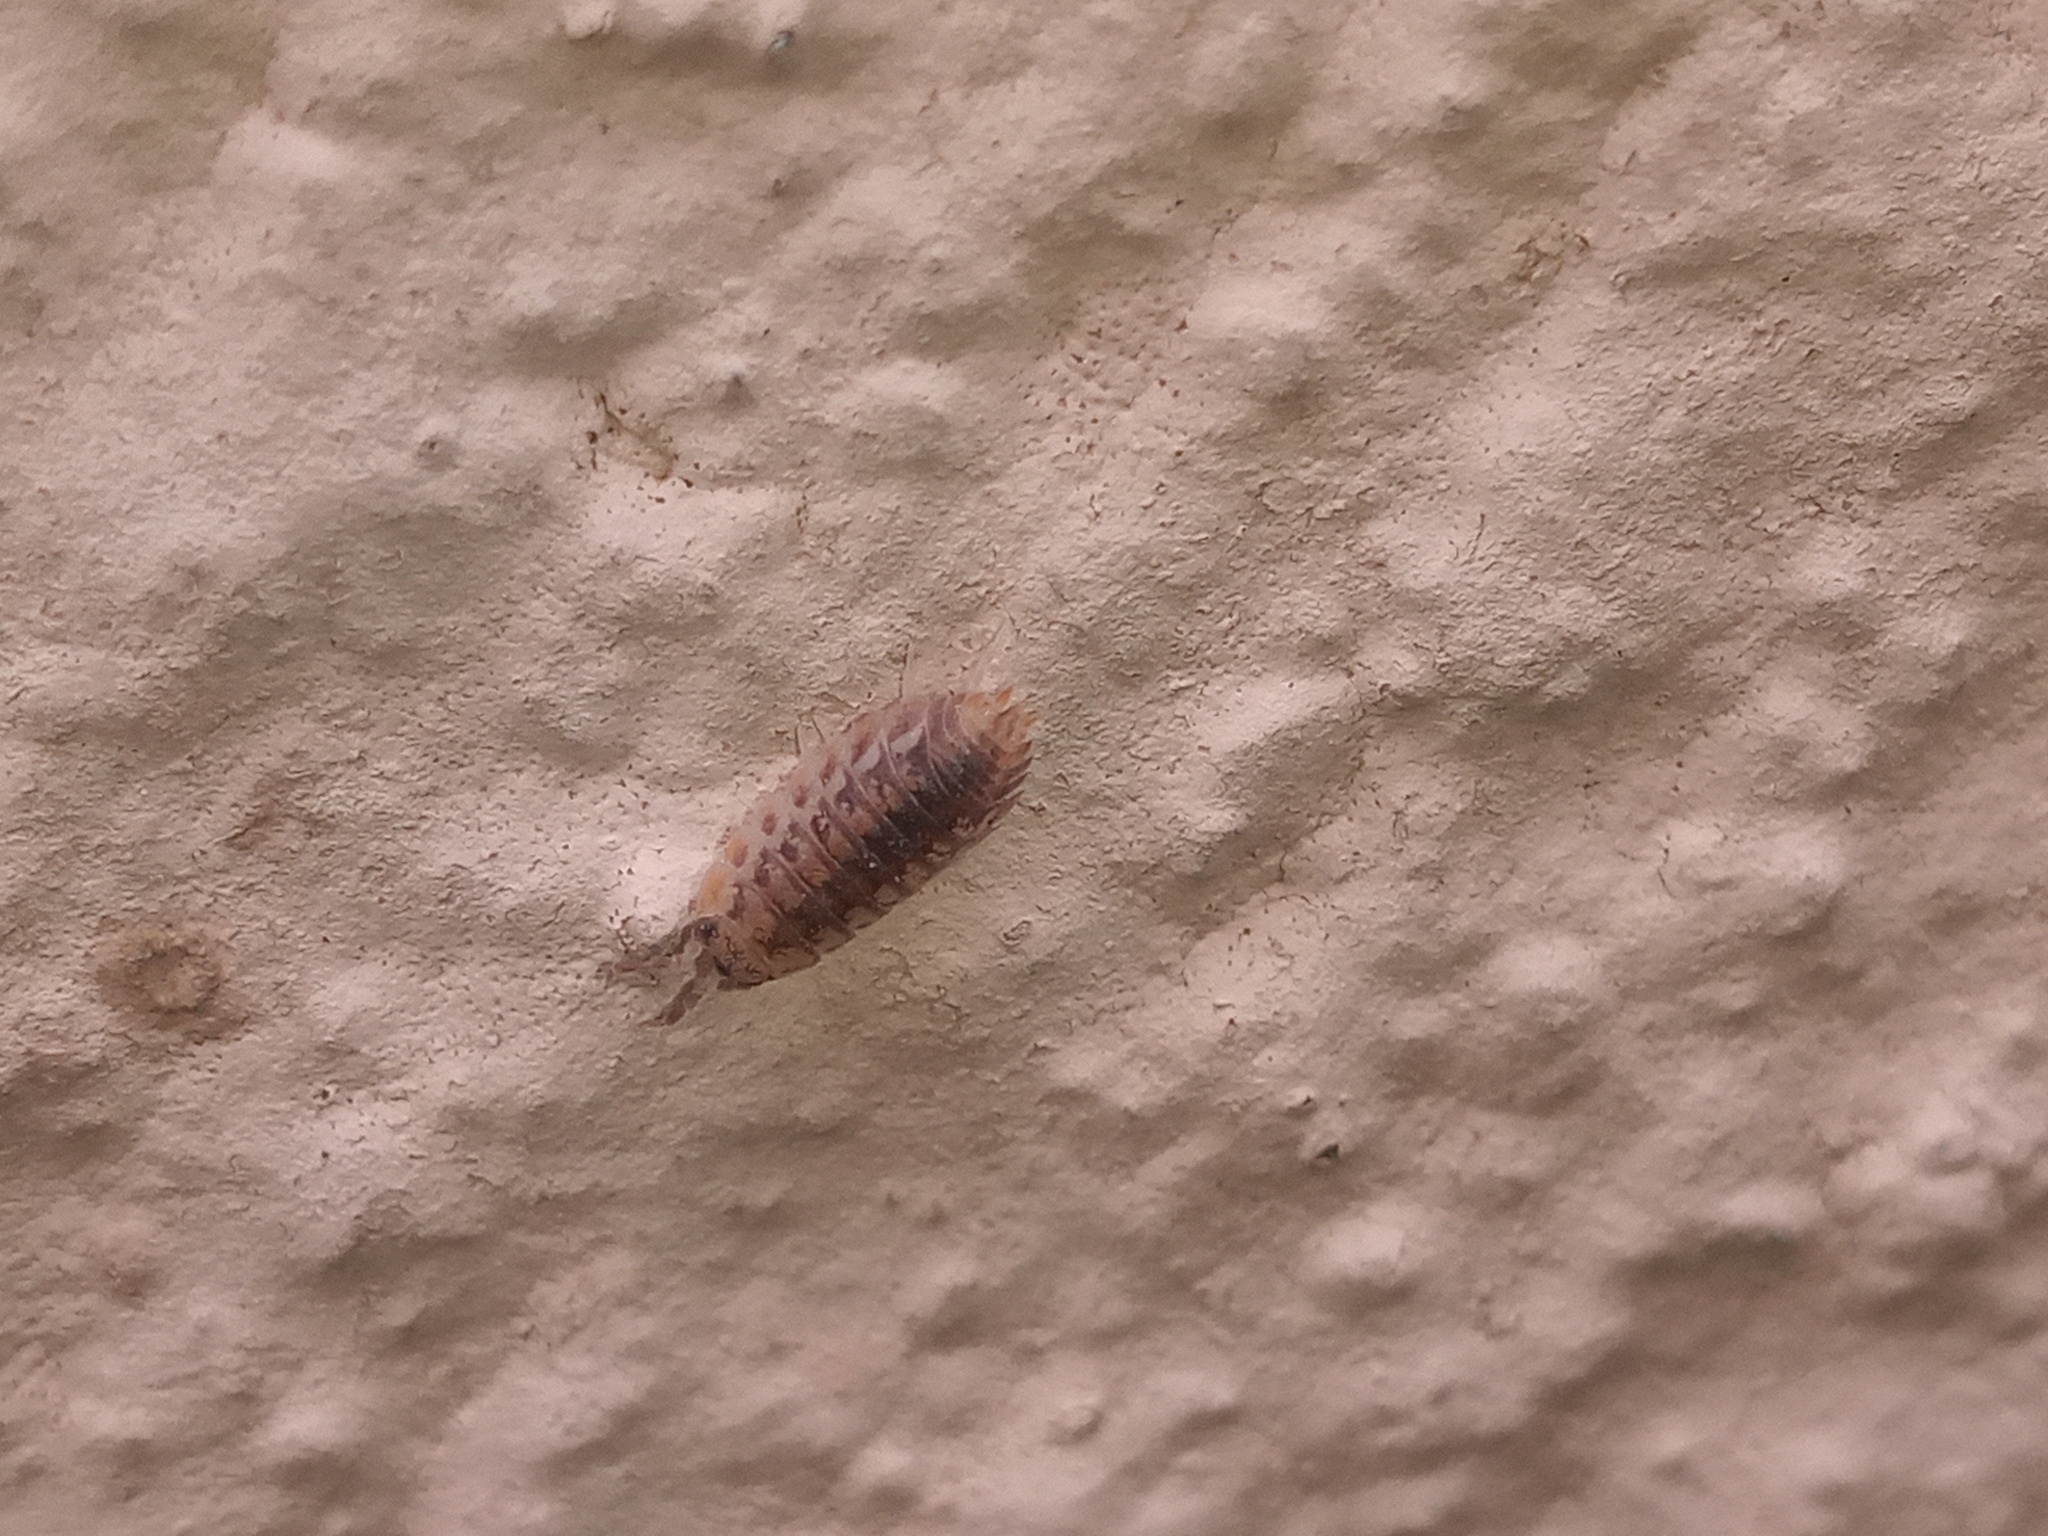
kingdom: Animalia
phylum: Arthropoda
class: Malacostraca
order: Isopoda
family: Porcellionidae
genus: Agabiformius
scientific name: Agabiformius lentus
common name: Pillbug
